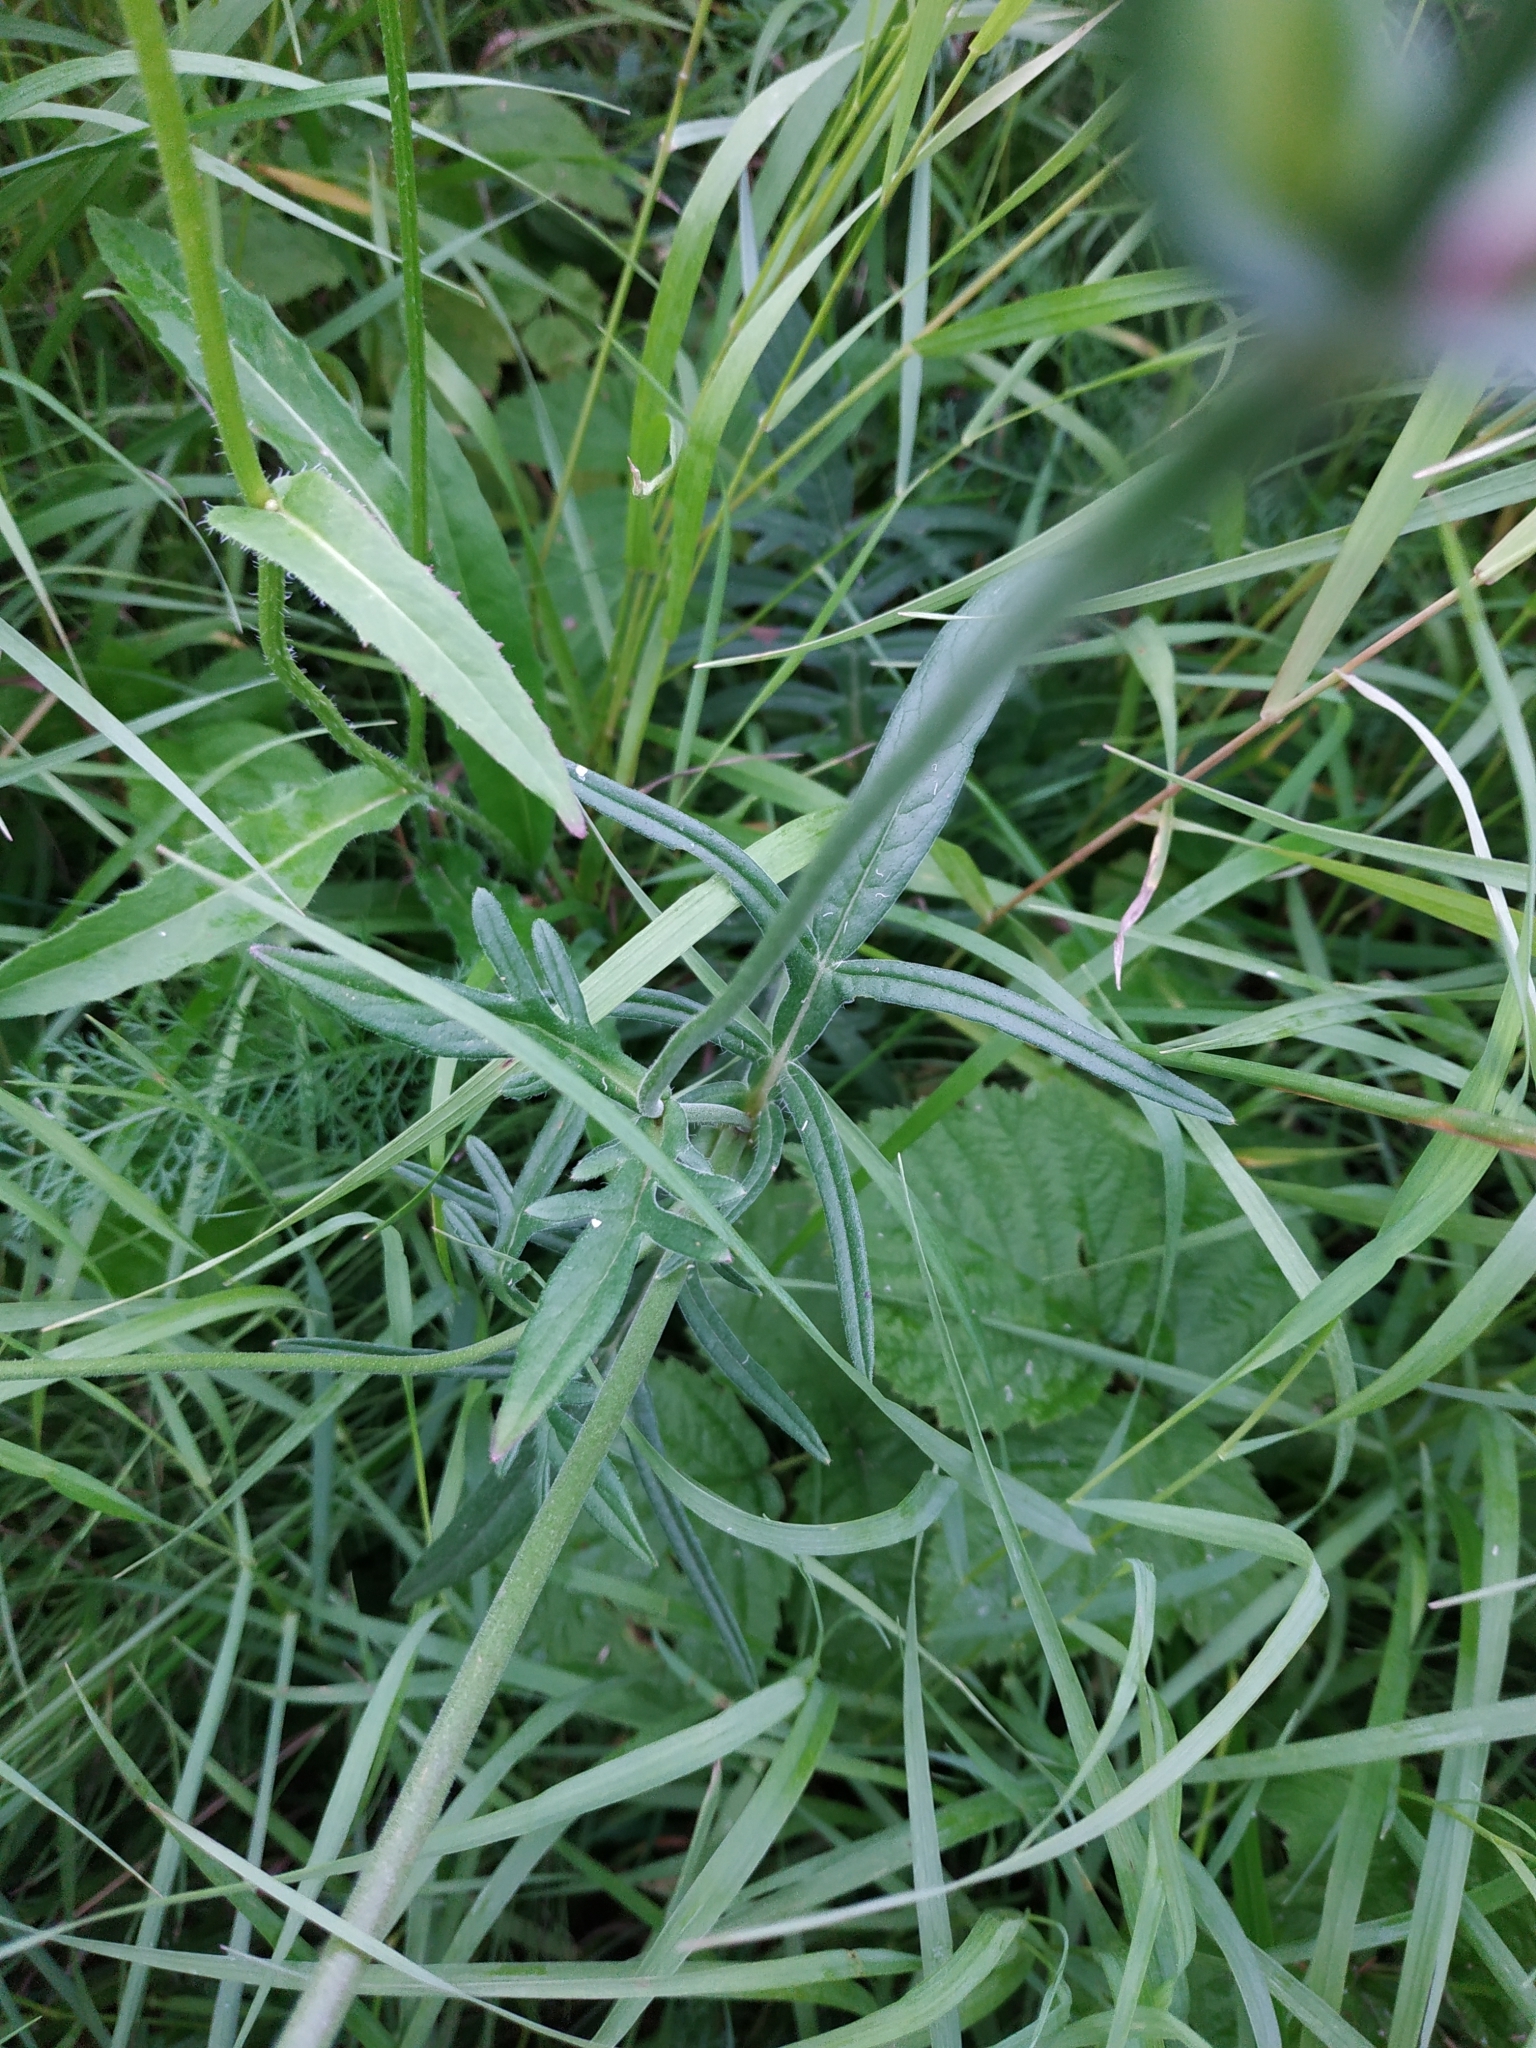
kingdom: Plantae
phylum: Tracheophyta
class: Magnoliopsida
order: Dipsacales
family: Caprifoliaceae
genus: Knautia
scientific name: Knautia arvensis
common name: Field scabiosa
